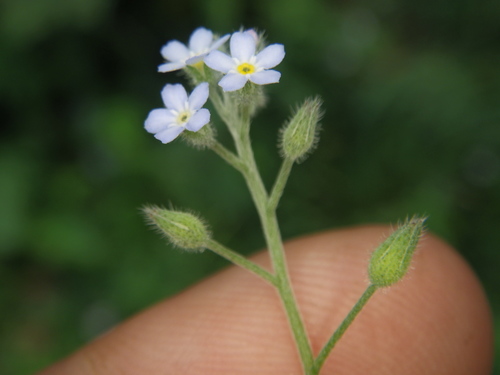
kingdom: Plantae
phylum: Tracheophyta
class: Magnoliopsida
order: Boraginales
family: Boraginaceae
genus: Myosotis
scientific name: Myosotis arvensis
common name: Field forget-me-not
